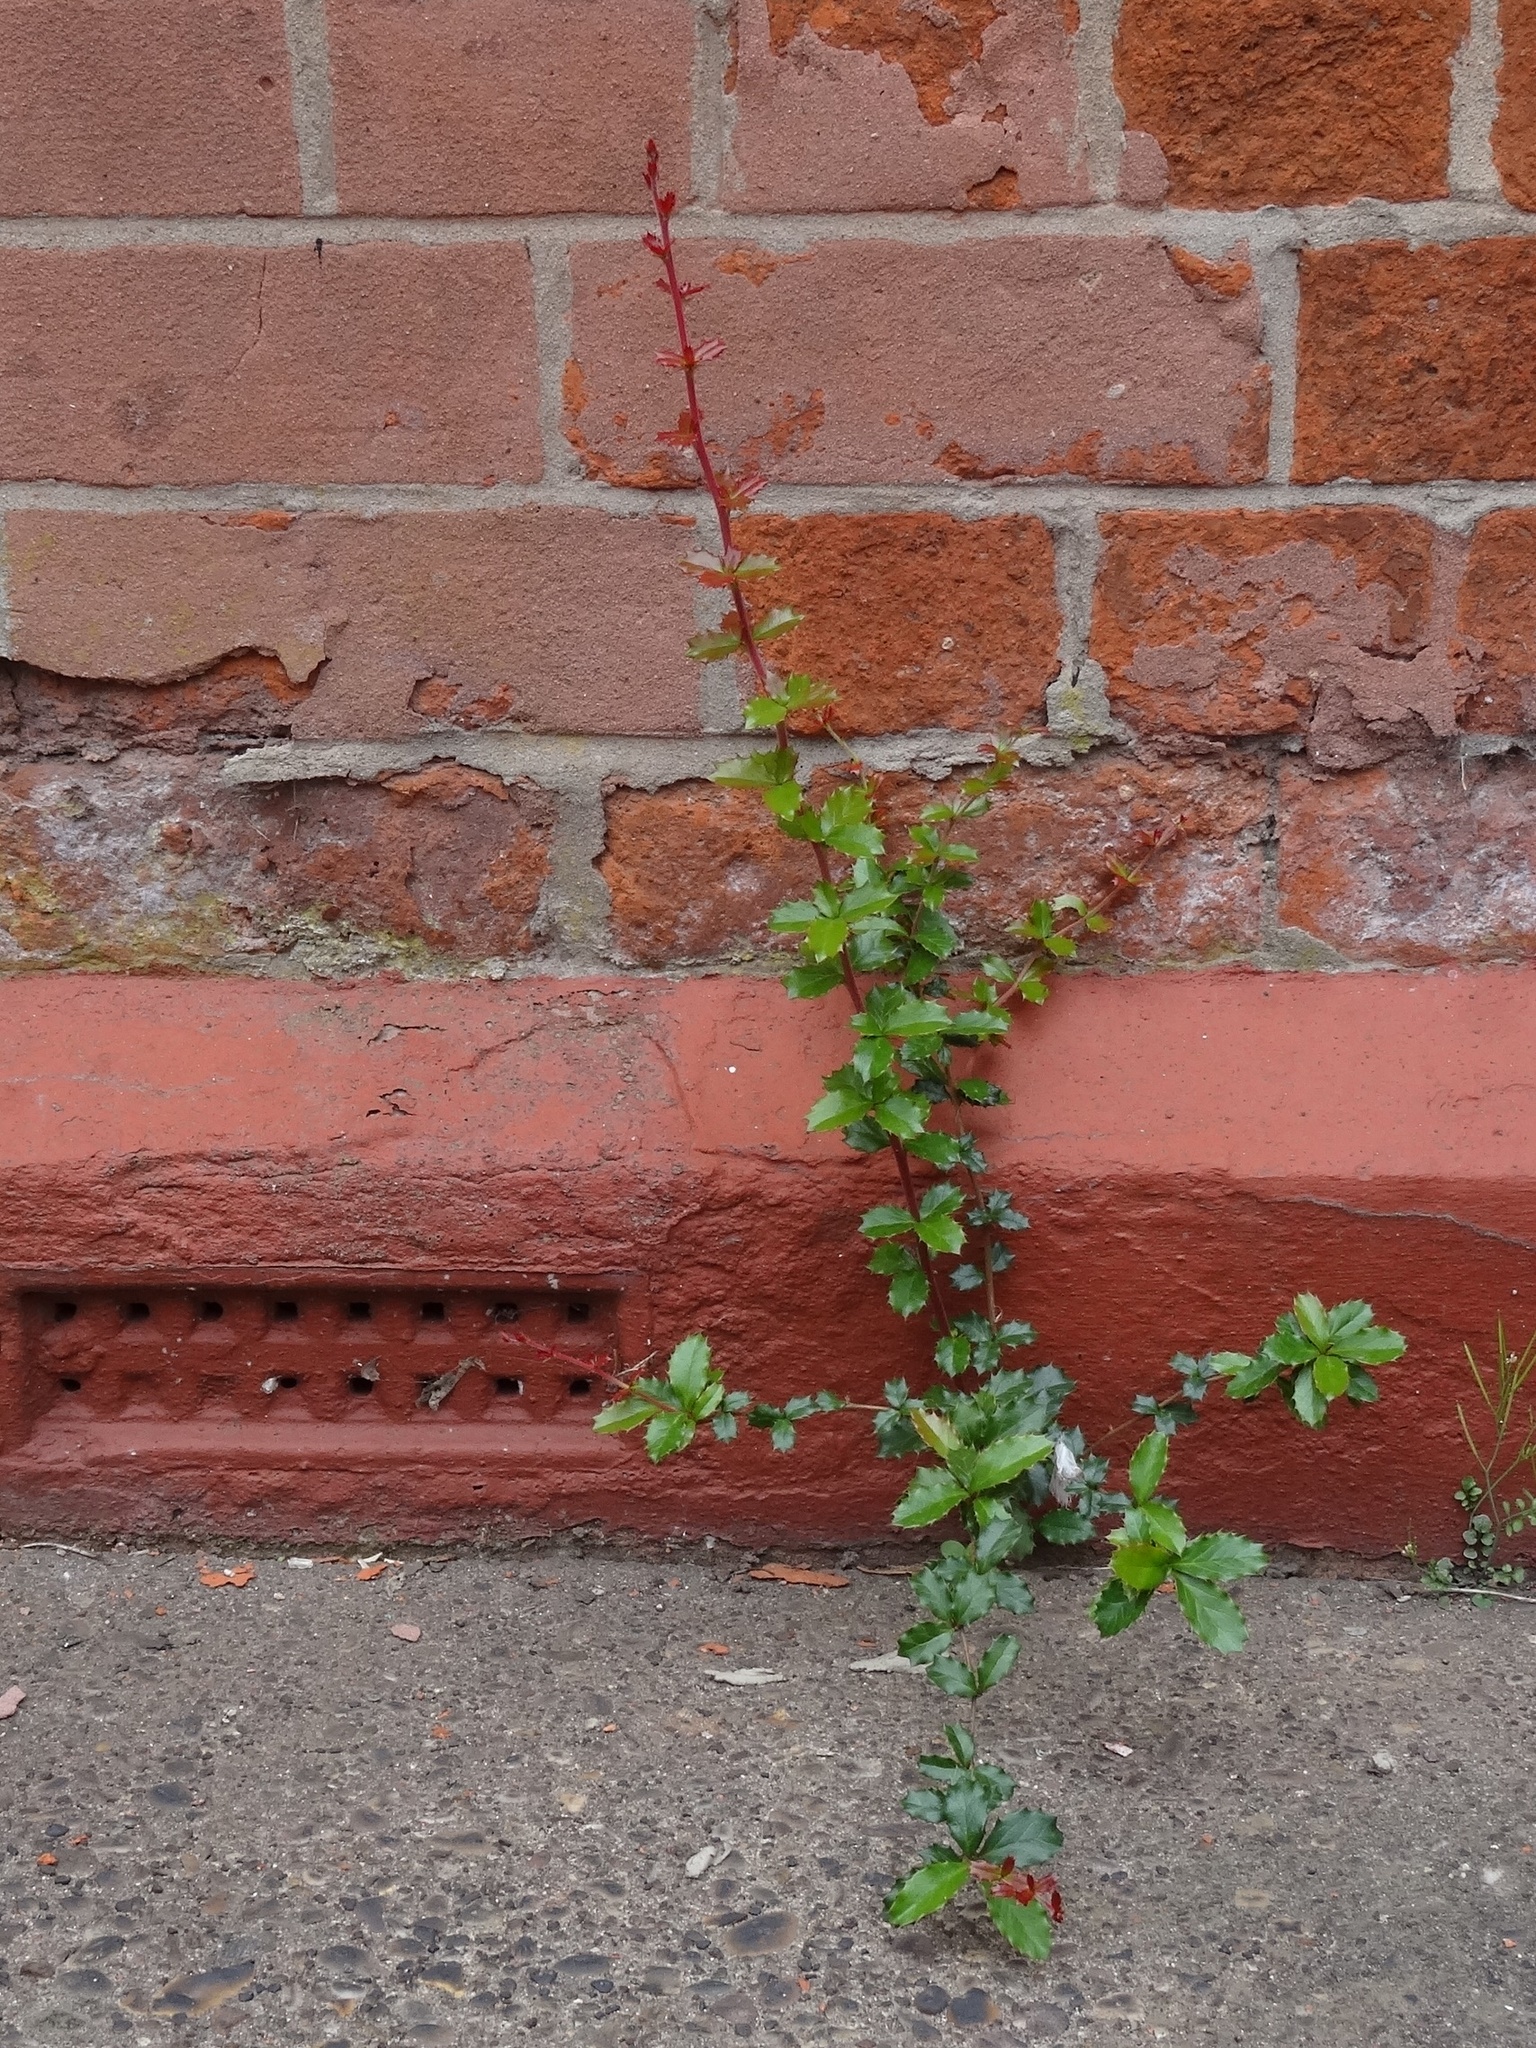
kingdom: Plantae
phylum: Tracheophyta
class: Magnoliopsida
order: Ranunculales
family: Berberidaceae
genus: Berberis
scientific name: Berberis darwinii
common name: Darwin's barberry
